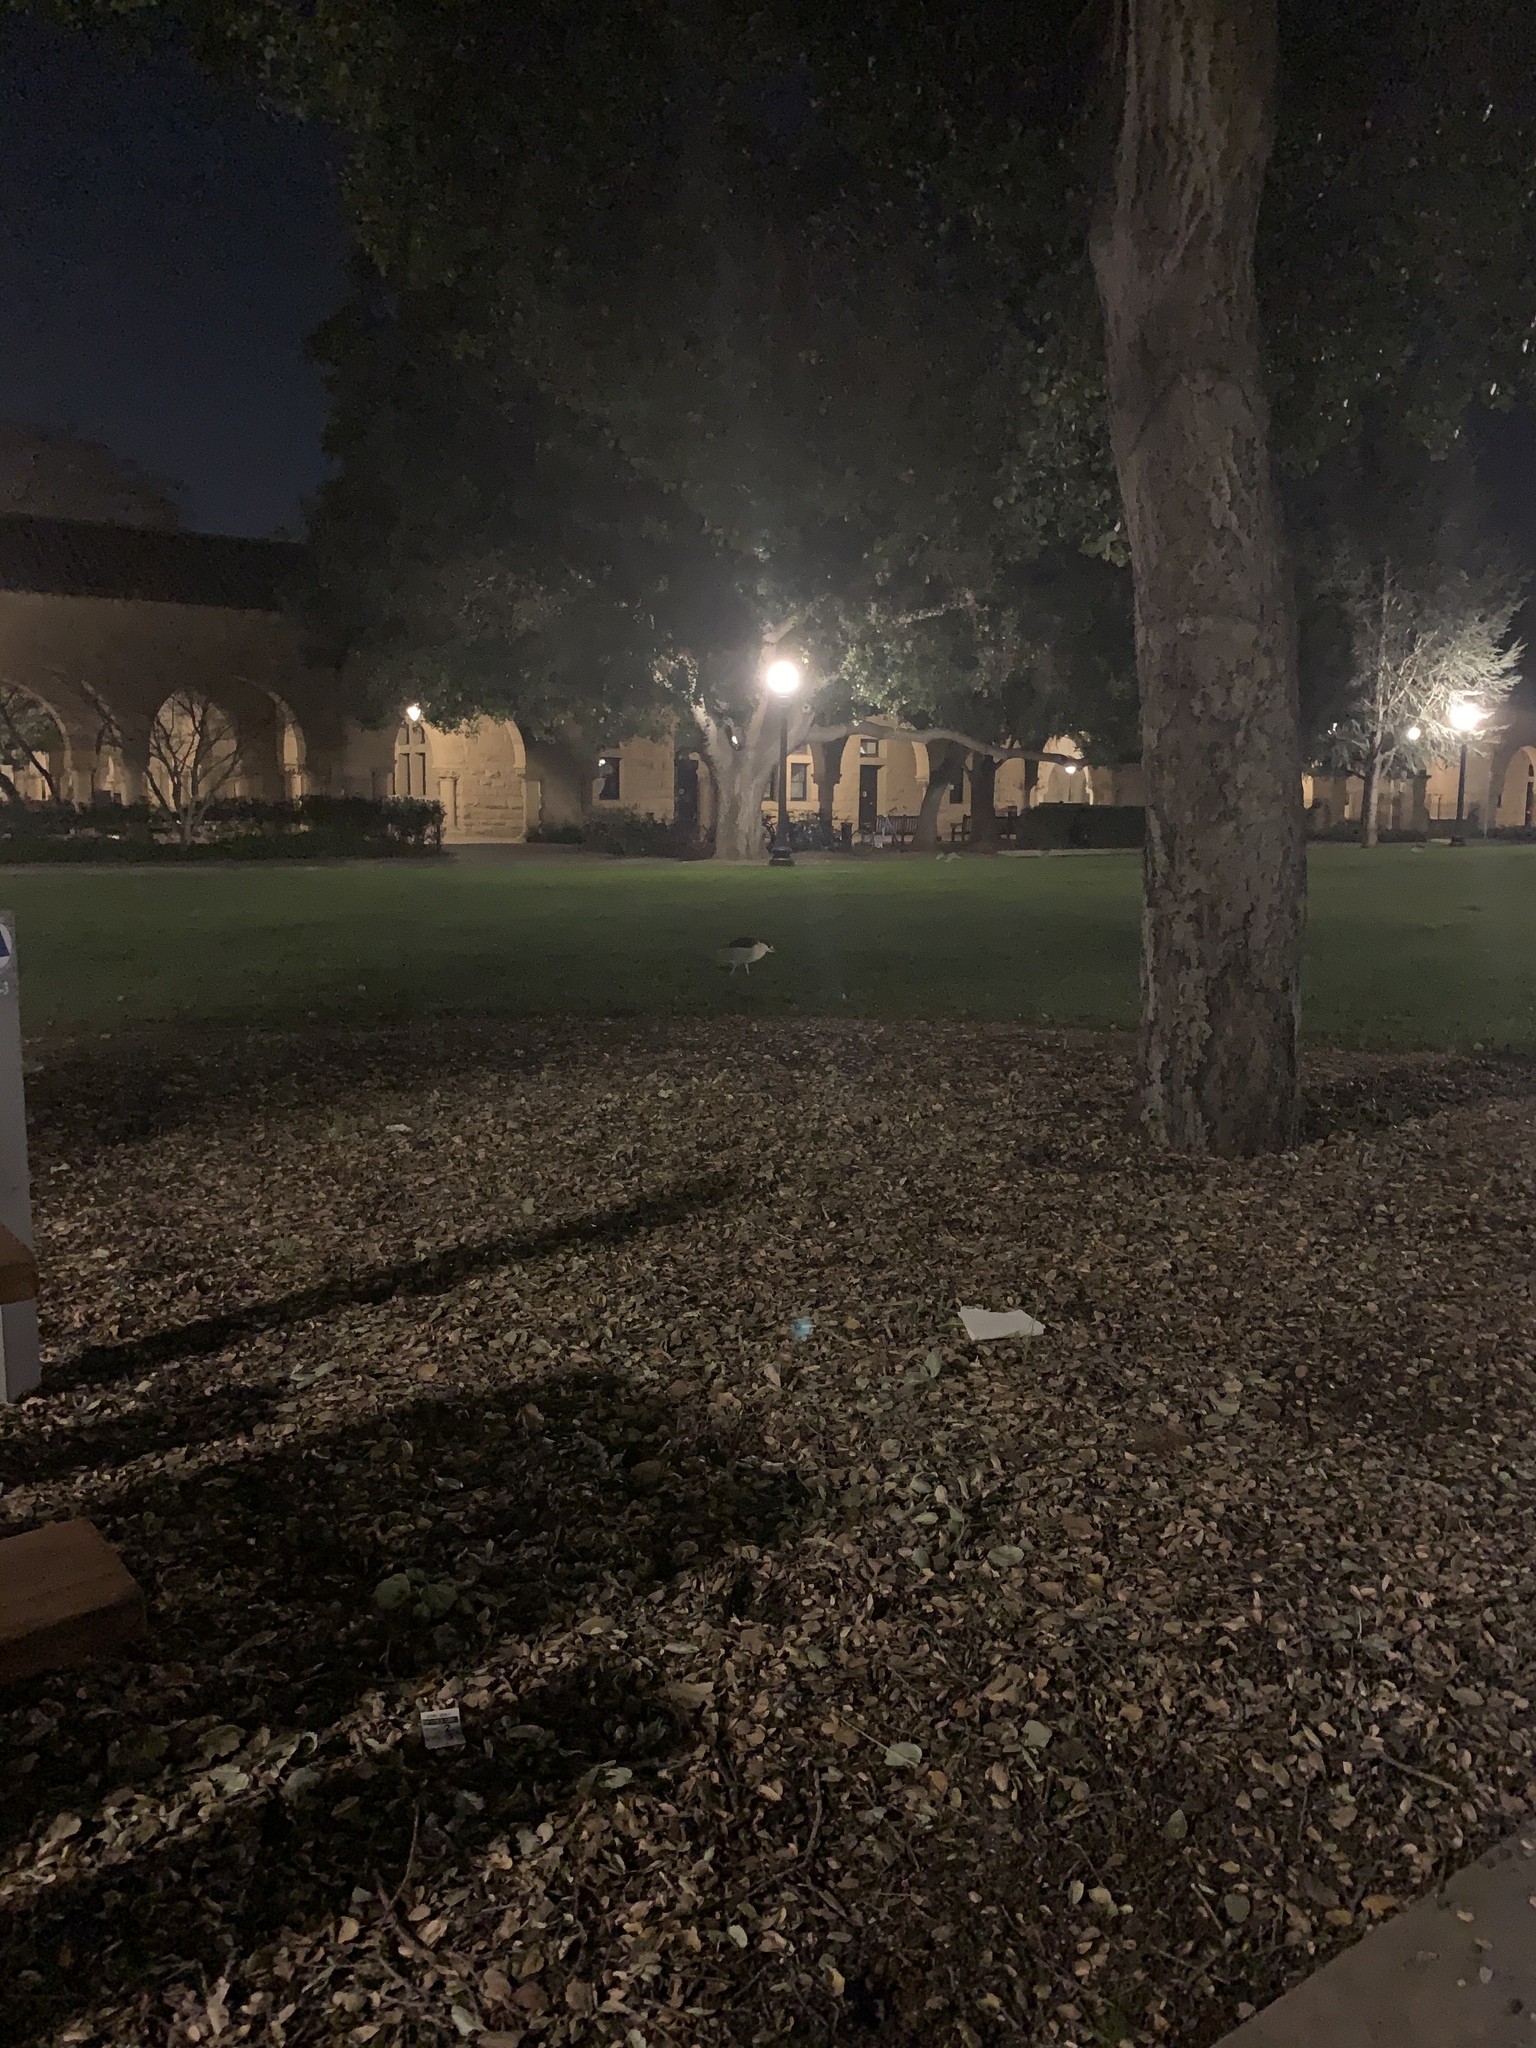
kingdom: Animalia
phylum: Chordata
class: Aves
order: Pelecaniformes
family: Ardeidae
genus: Nycticorax
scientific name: Nycticorax nycticorax
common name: Black-crowned night heron
